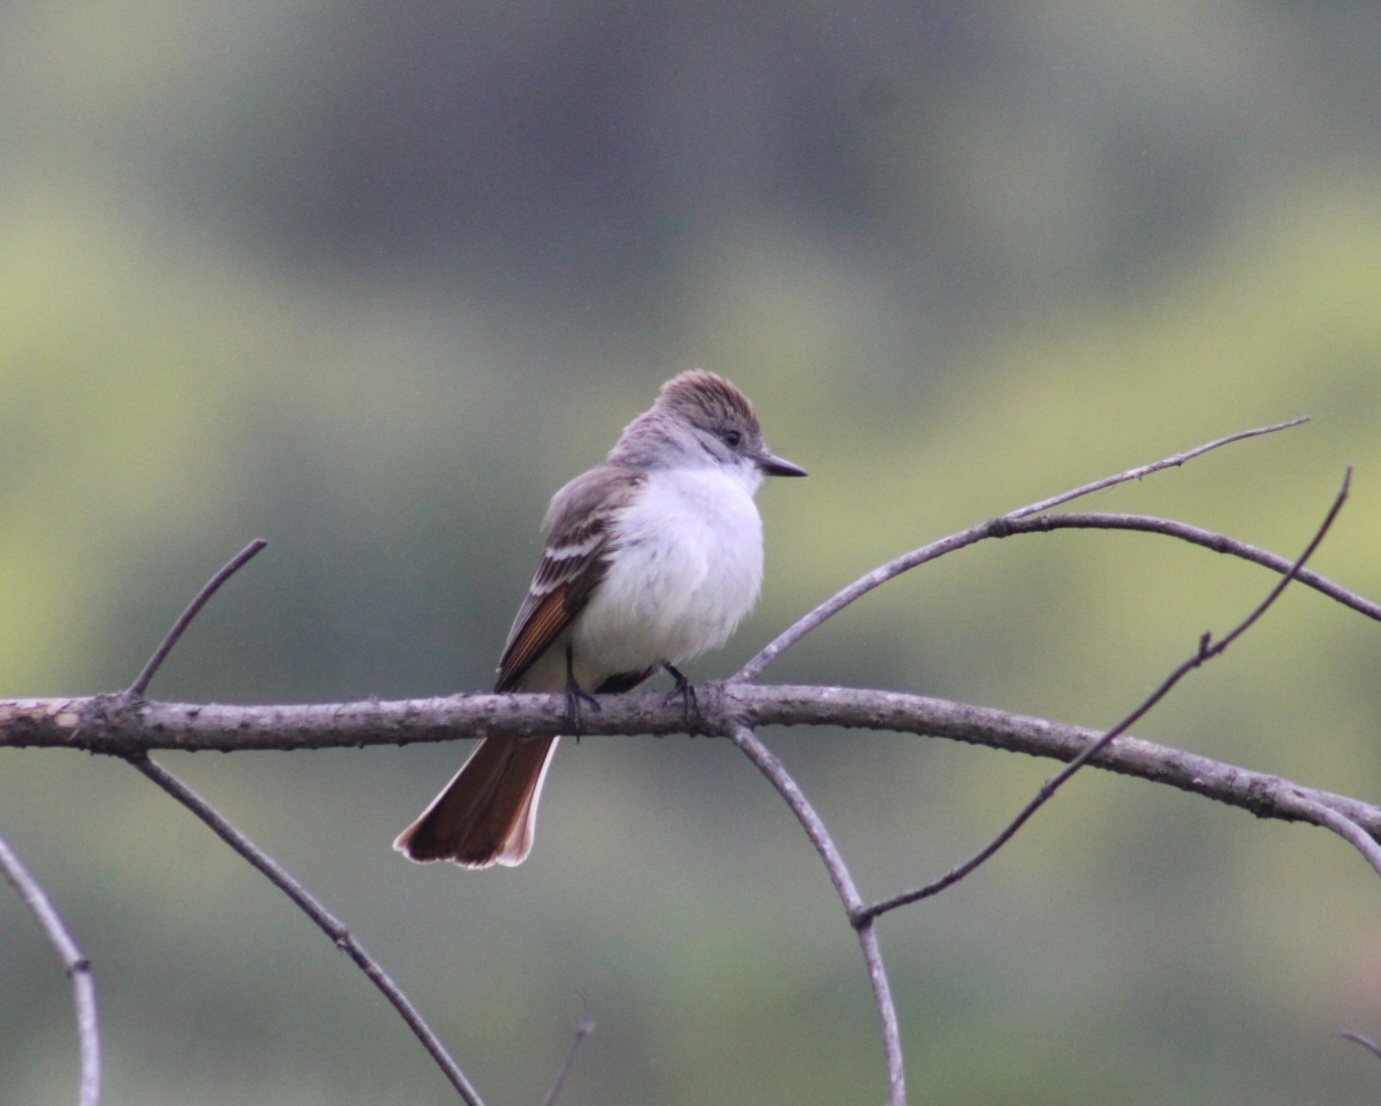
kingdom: Animalia
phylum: Chordata
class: Aves
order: Passeriformes
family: Tyrannidae
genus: Myiarchus
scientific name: Myiarchus cinerascens
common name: Ash-throated flycatcher
